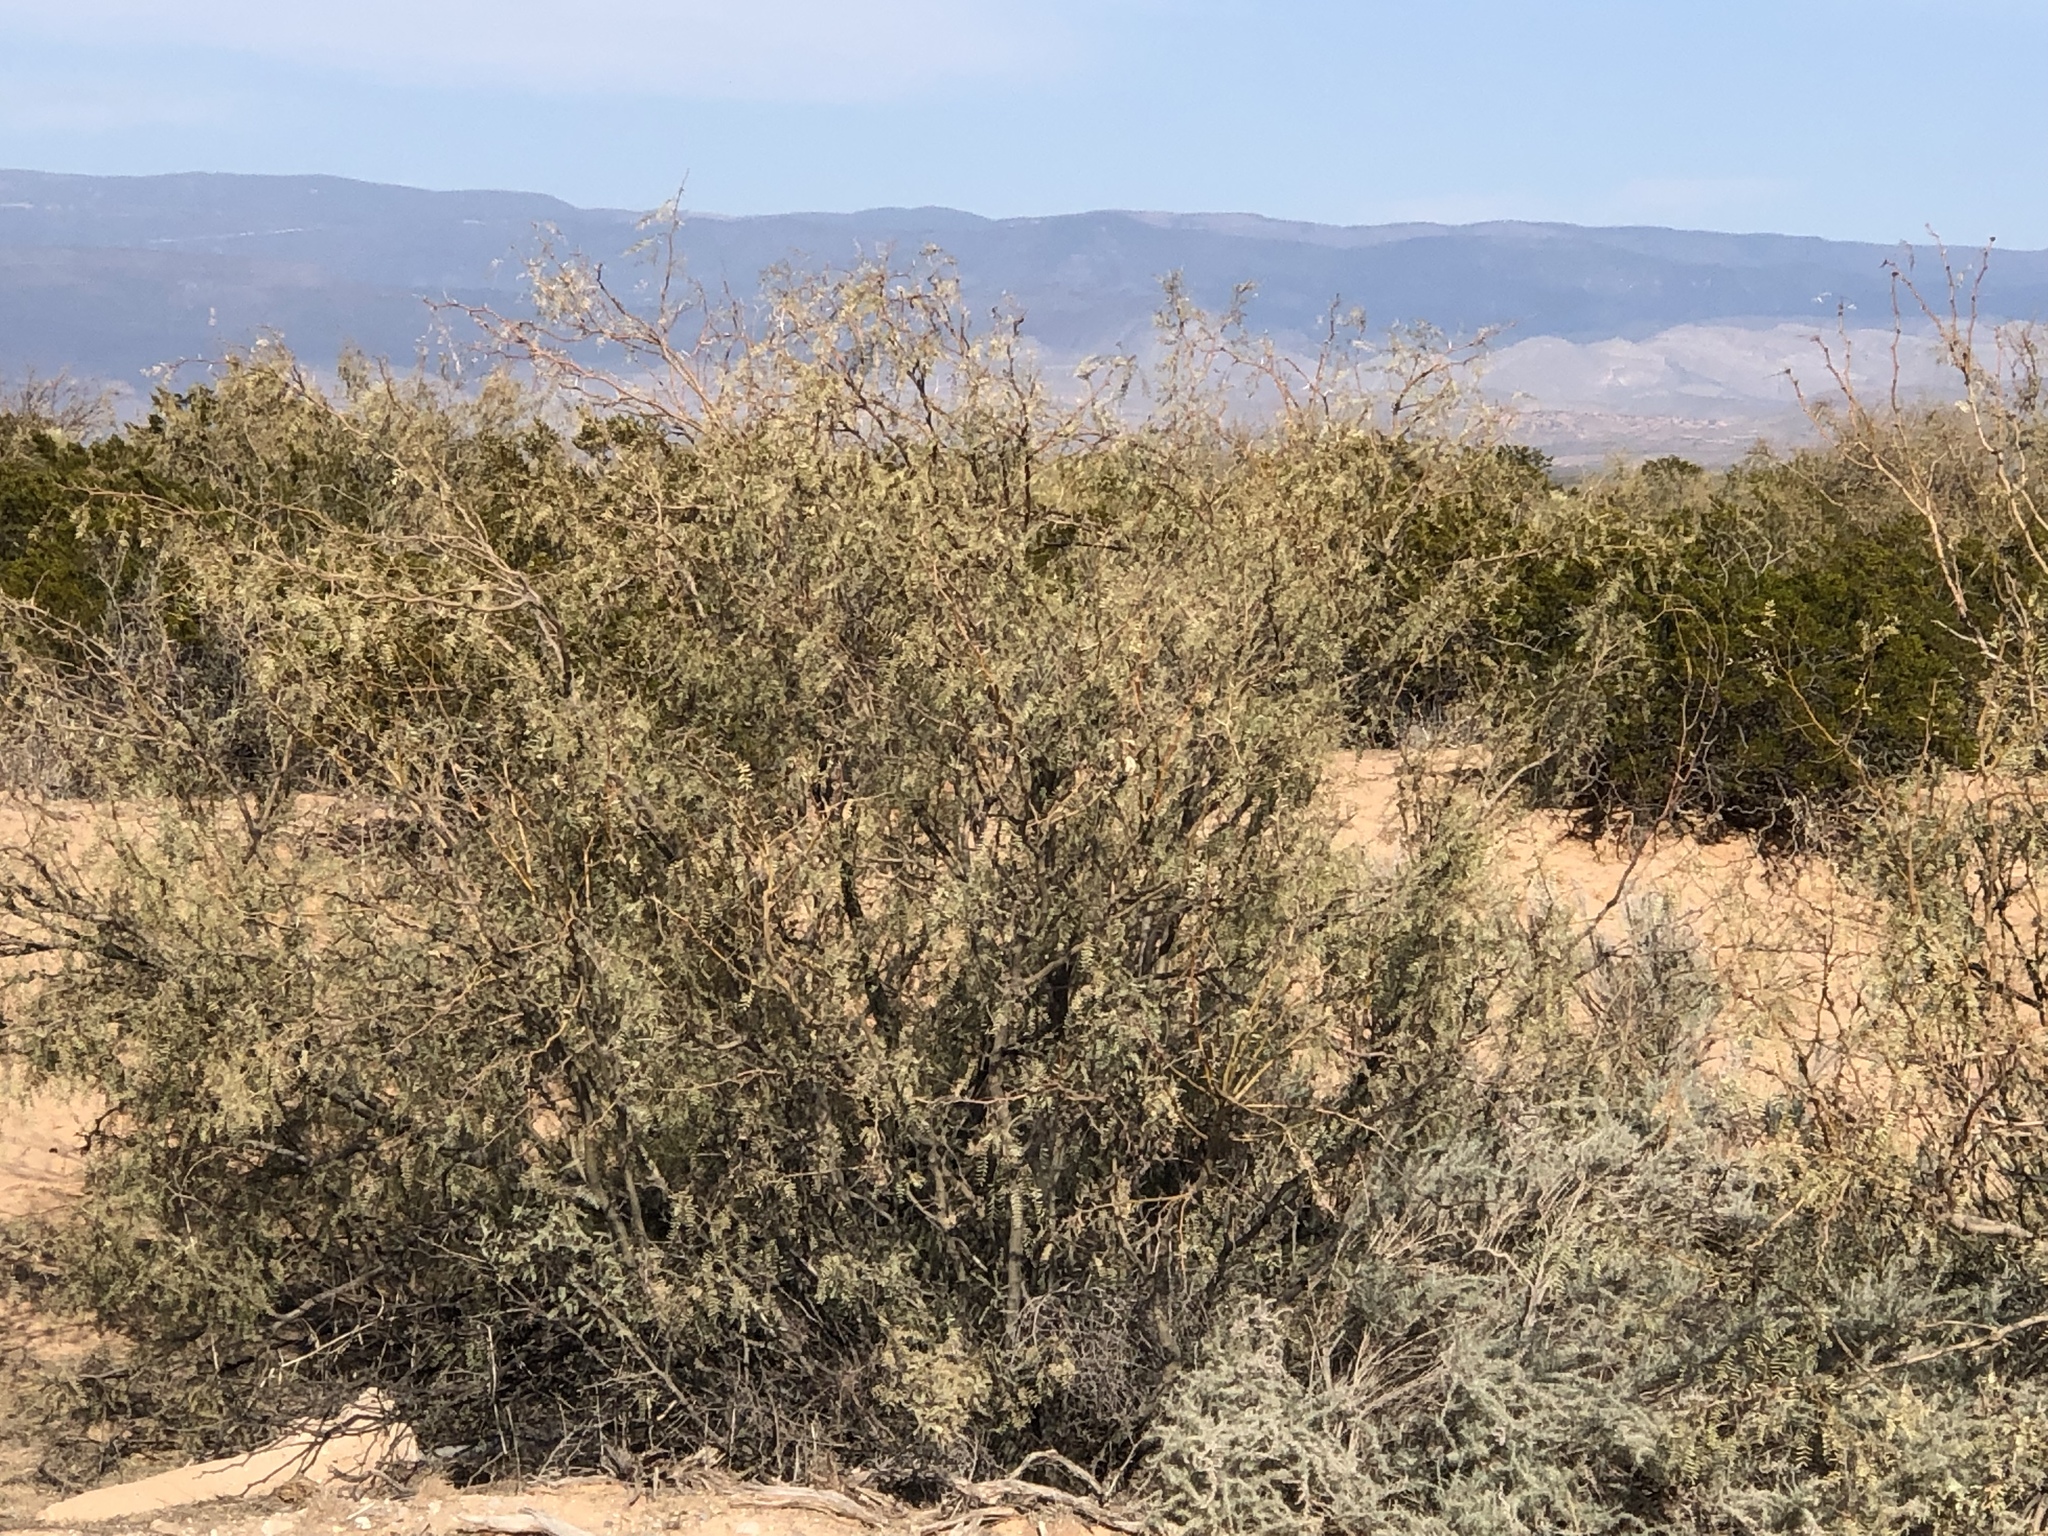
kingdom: Plantae
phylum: Tracheophyta
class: Magnoliopsida
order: Fabales
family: Fabaceae
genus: Prosopis
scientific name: Prosopis glandulosa
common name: Honey mesquite
